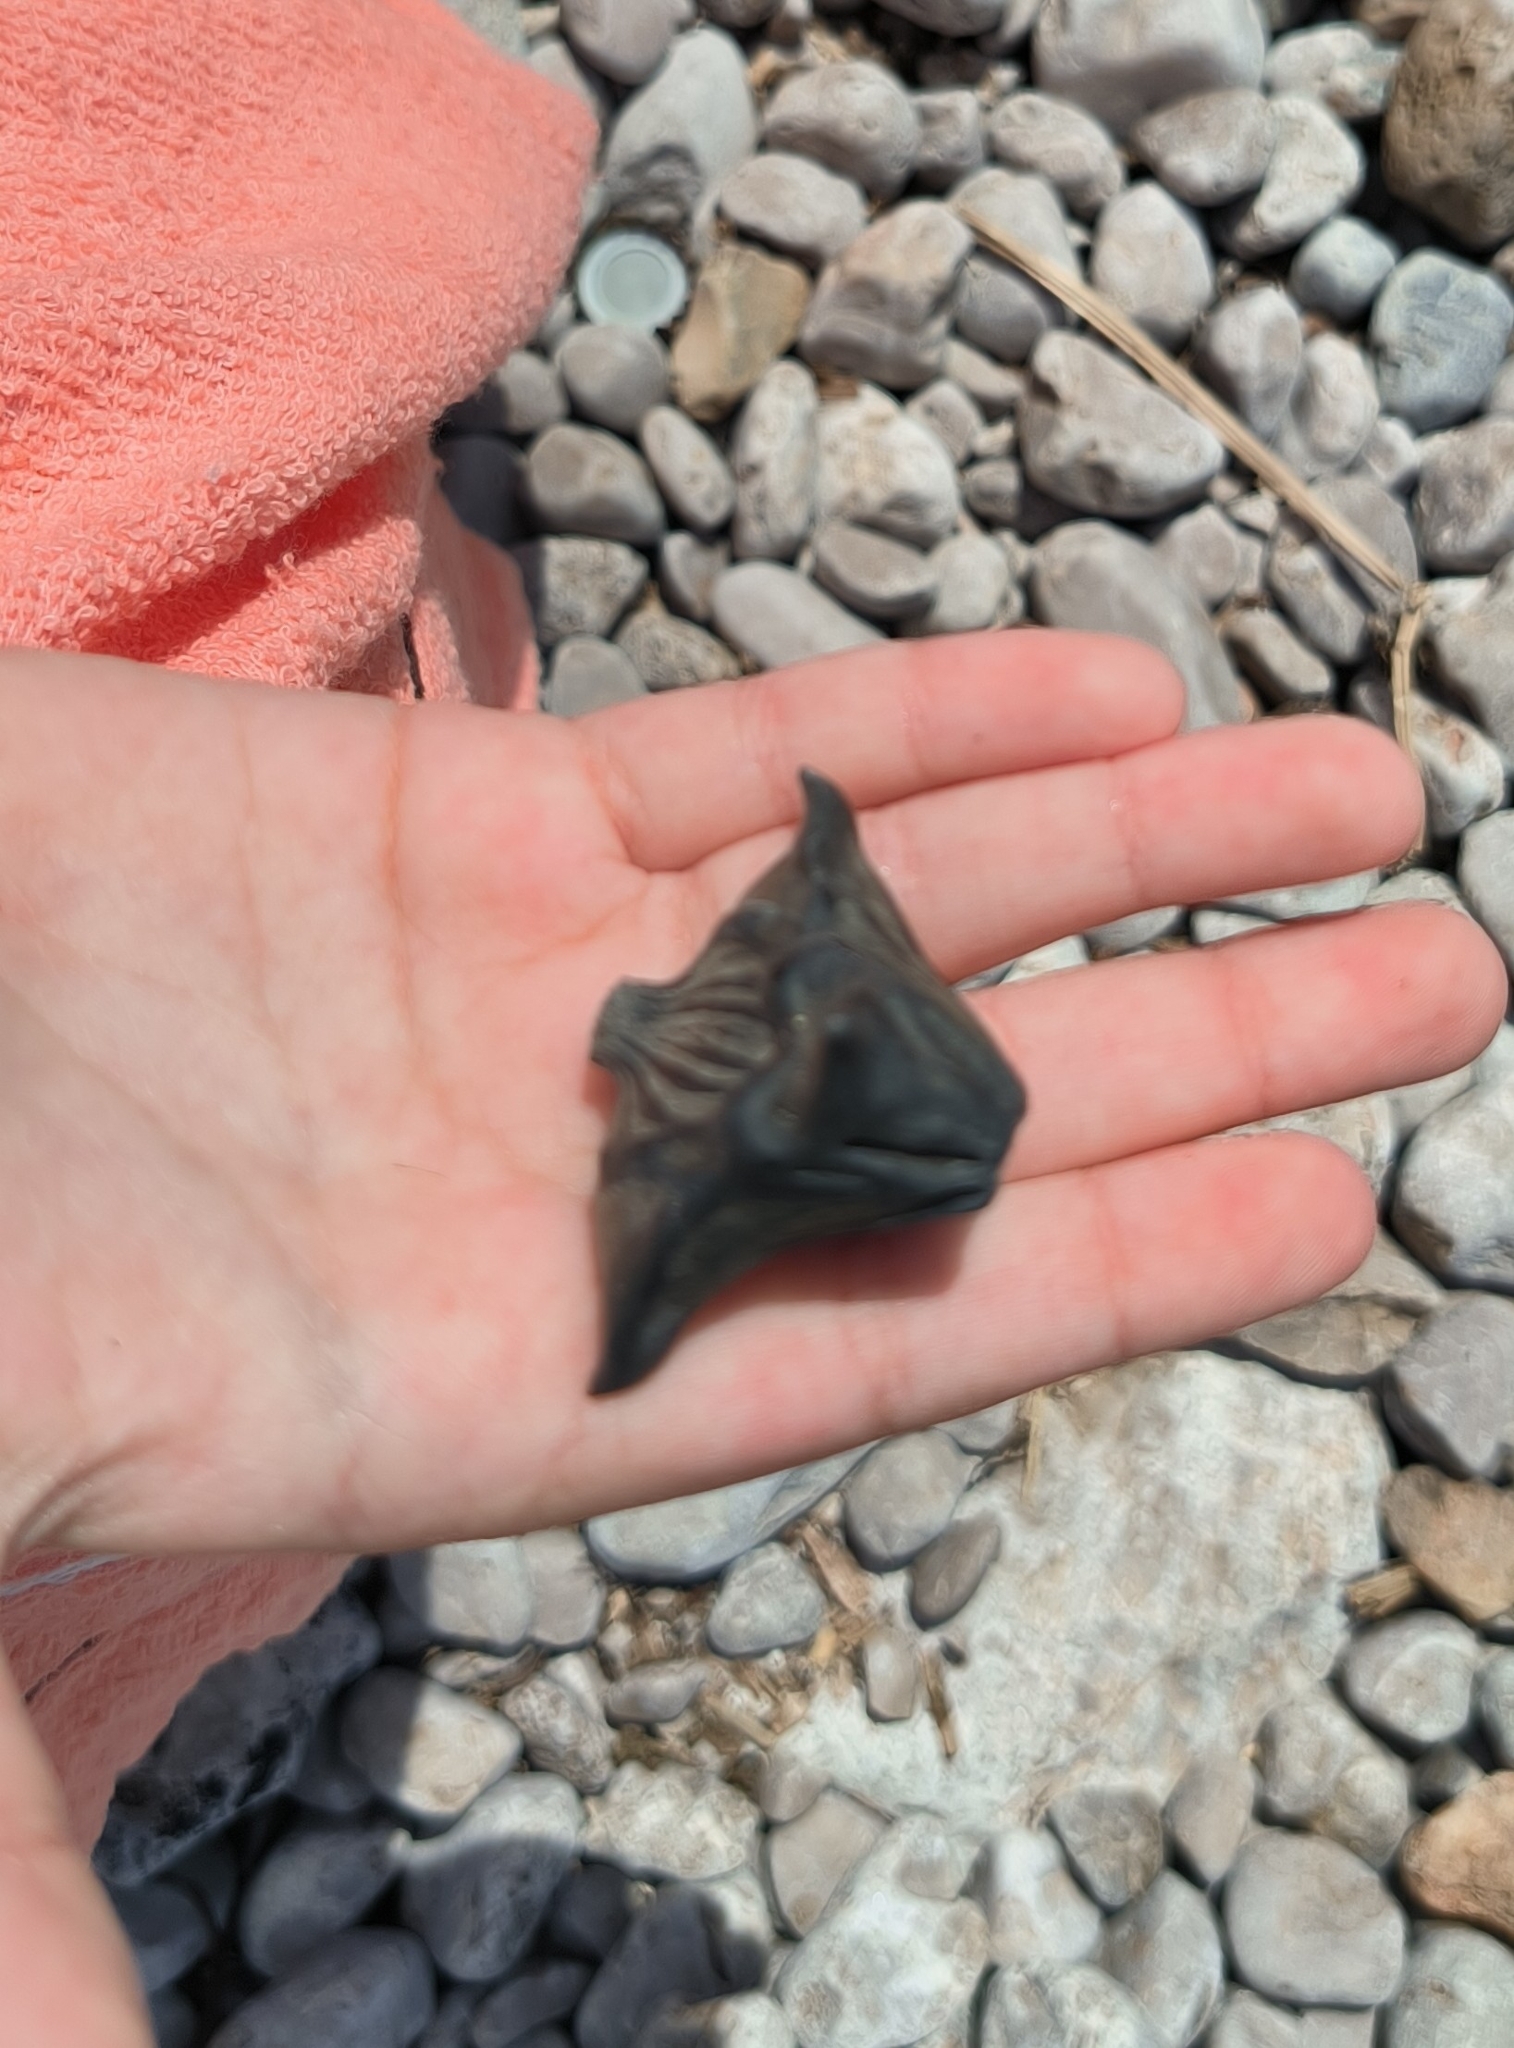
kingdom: Plantae
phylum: Tracheophyta
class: Magnoliopsida
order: Myrtales
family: Lythraceae
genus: Trapa
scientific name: Trapa natans
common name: Water chestnut
